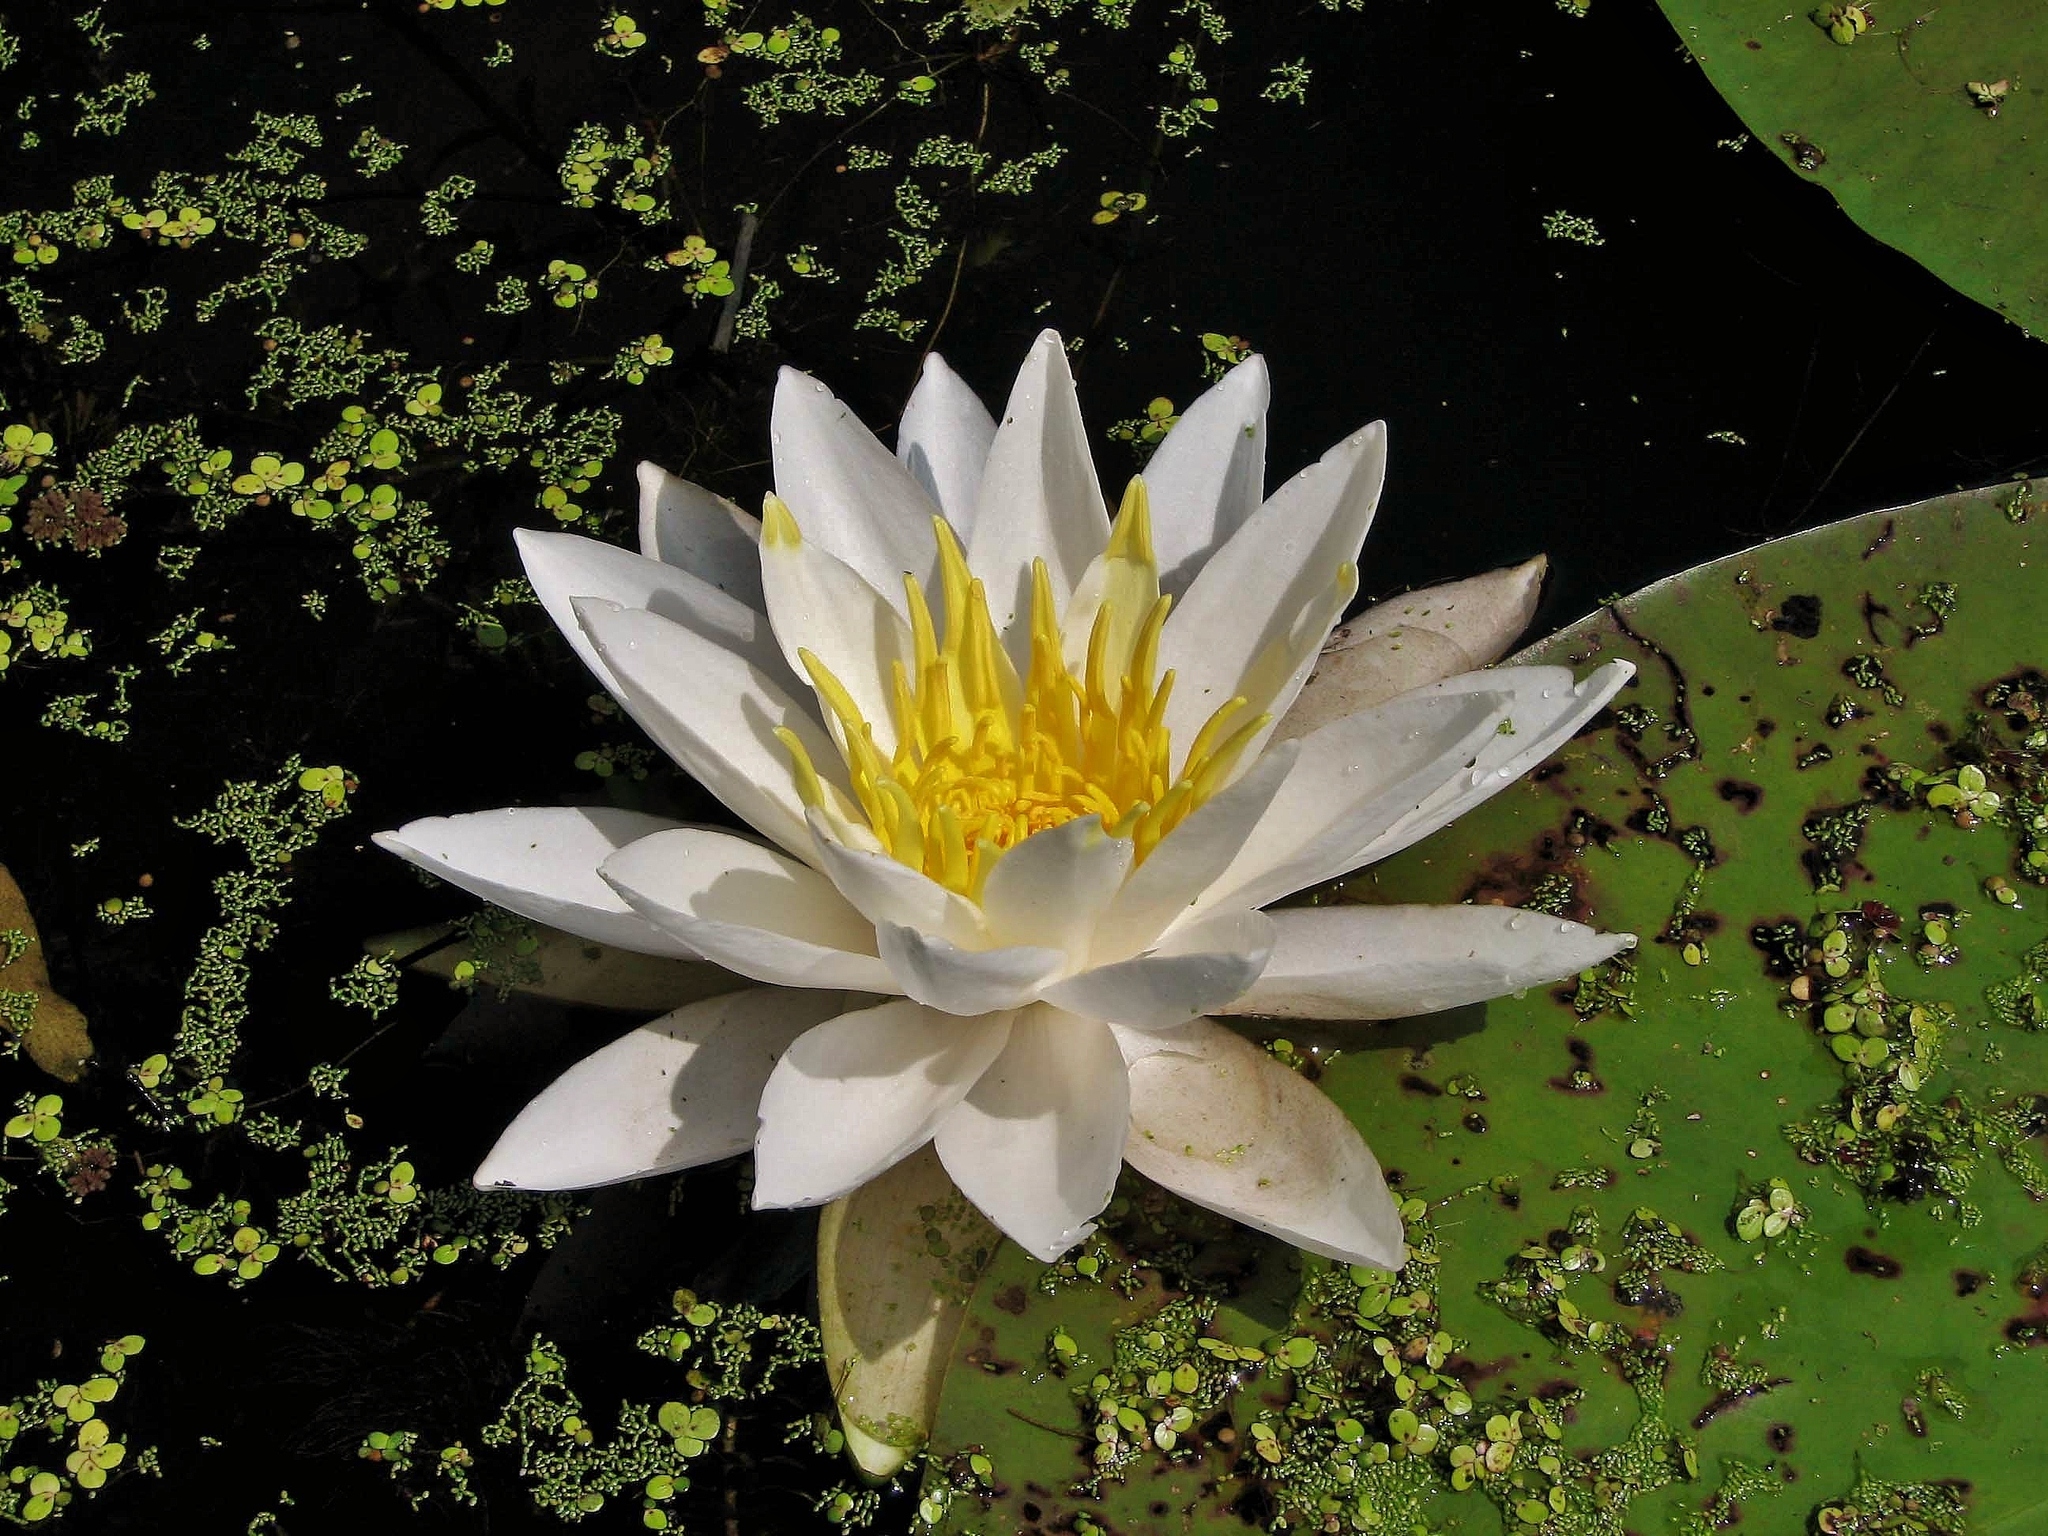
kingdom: Plantae
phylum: Tracheophyta
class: Magnoliopsida
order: Nymphaeales
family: Nymphaeaceae
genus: Nymphaea
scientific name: Nymphaea odorata
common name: Fragrant water-lily
